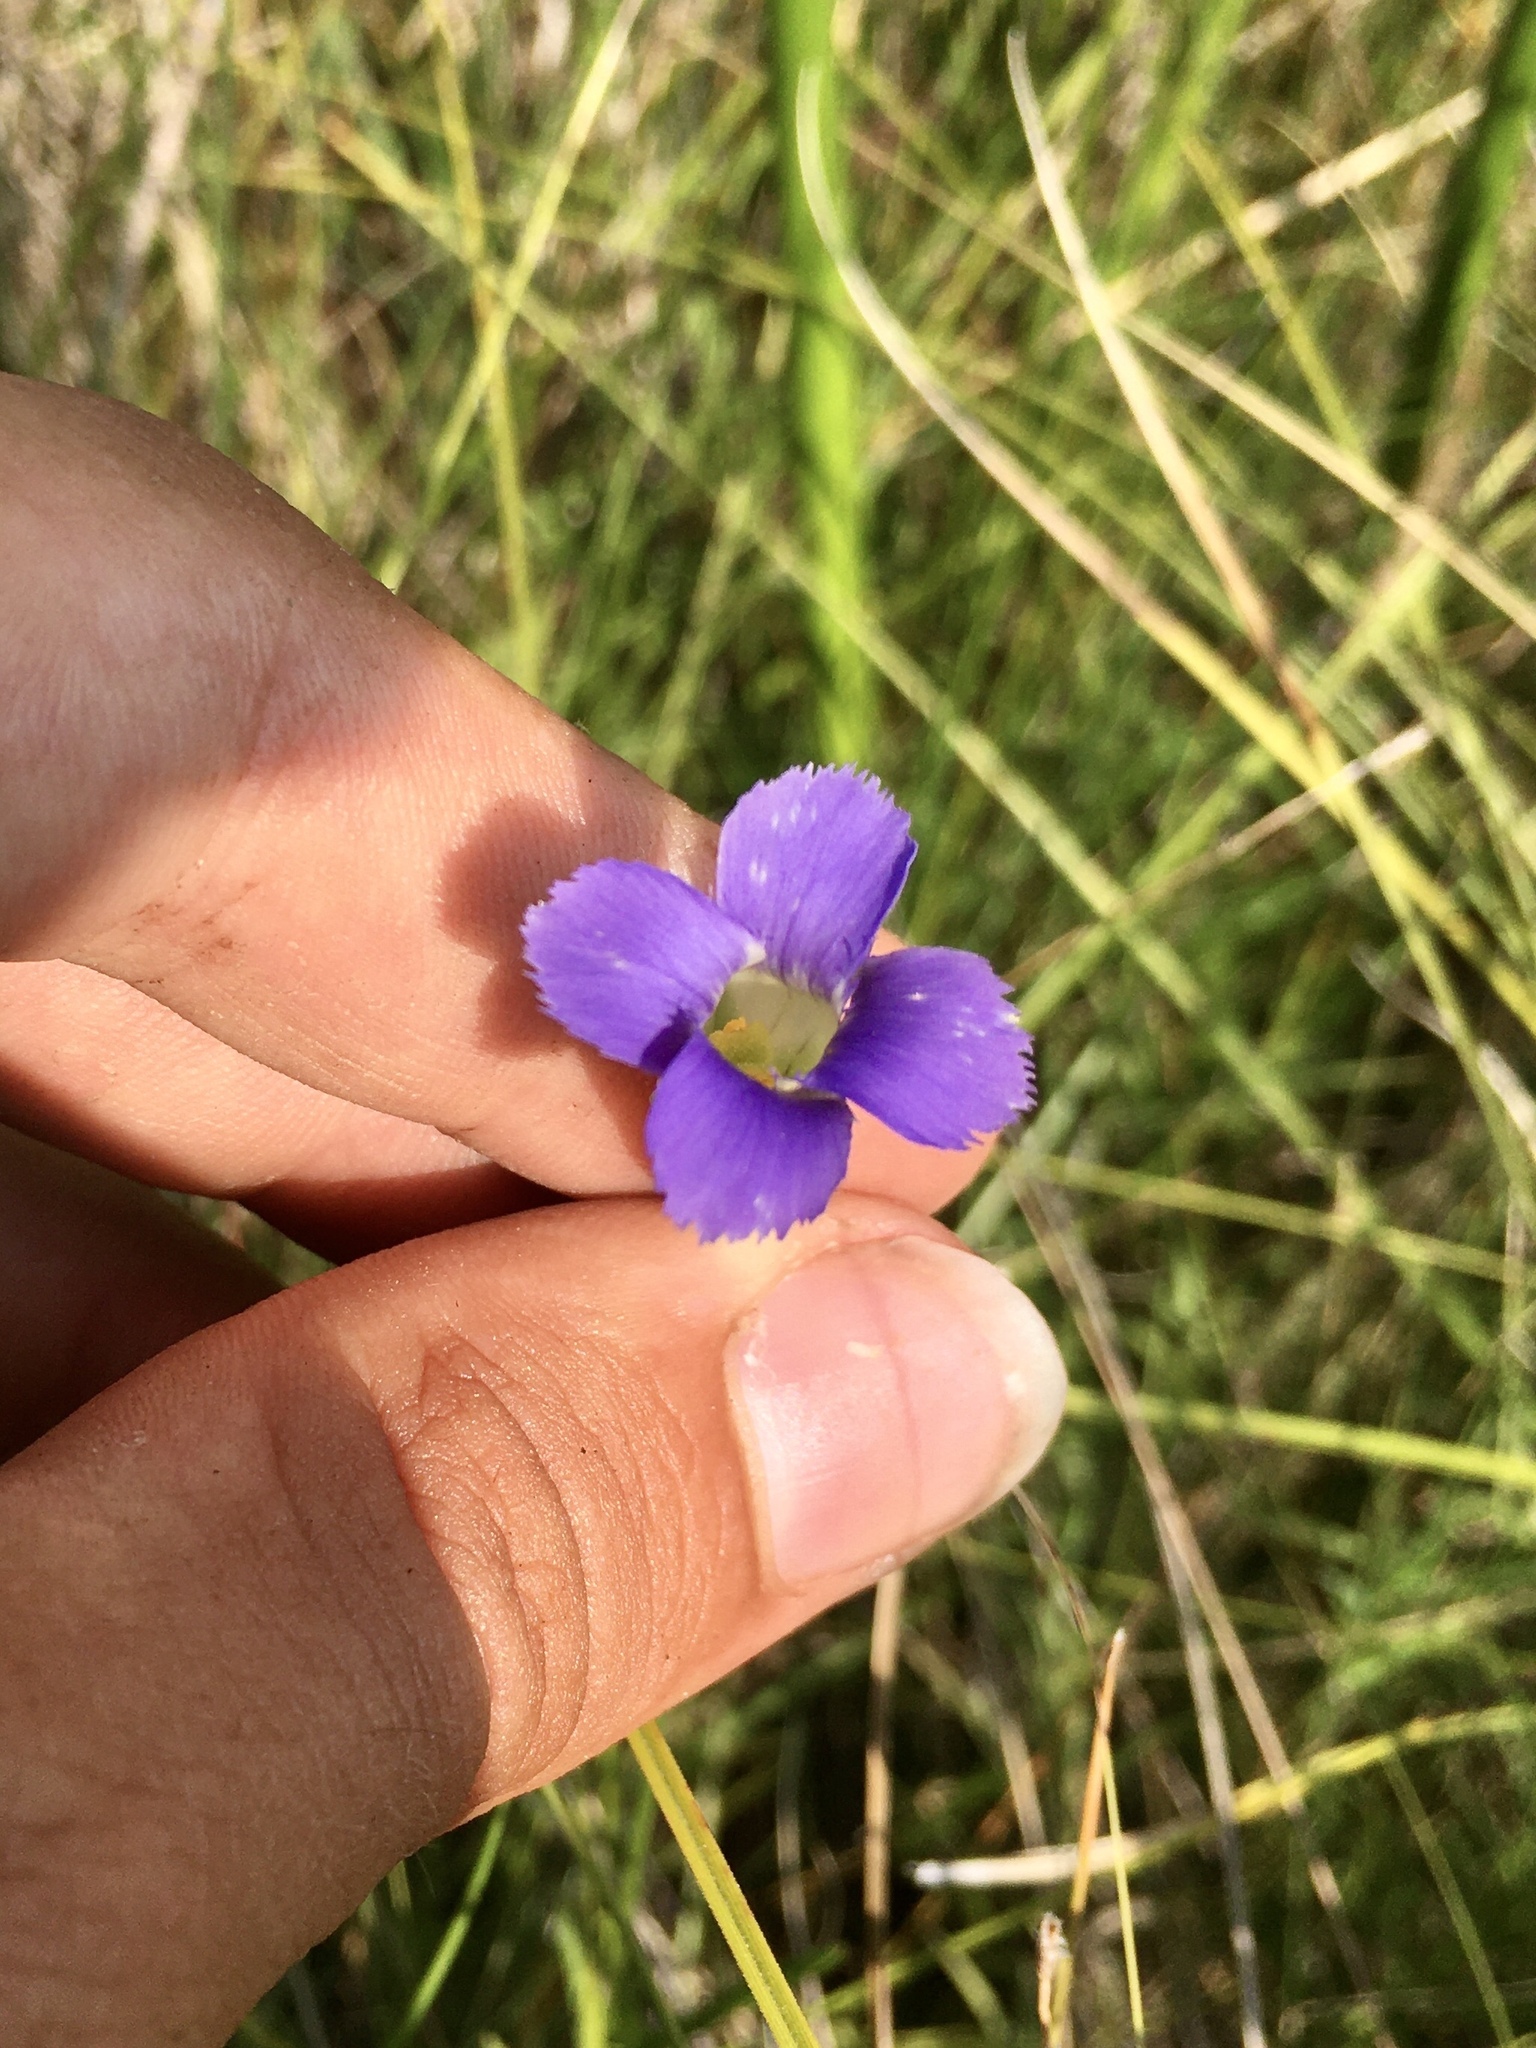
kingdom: Plantae
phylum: Tracheophyta
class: Magnoliopsida
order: Gentianales
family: Gentianaceae
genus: Gentianopsis
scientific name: Gentianopsis virgata
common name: Lesser fringed-gentian
